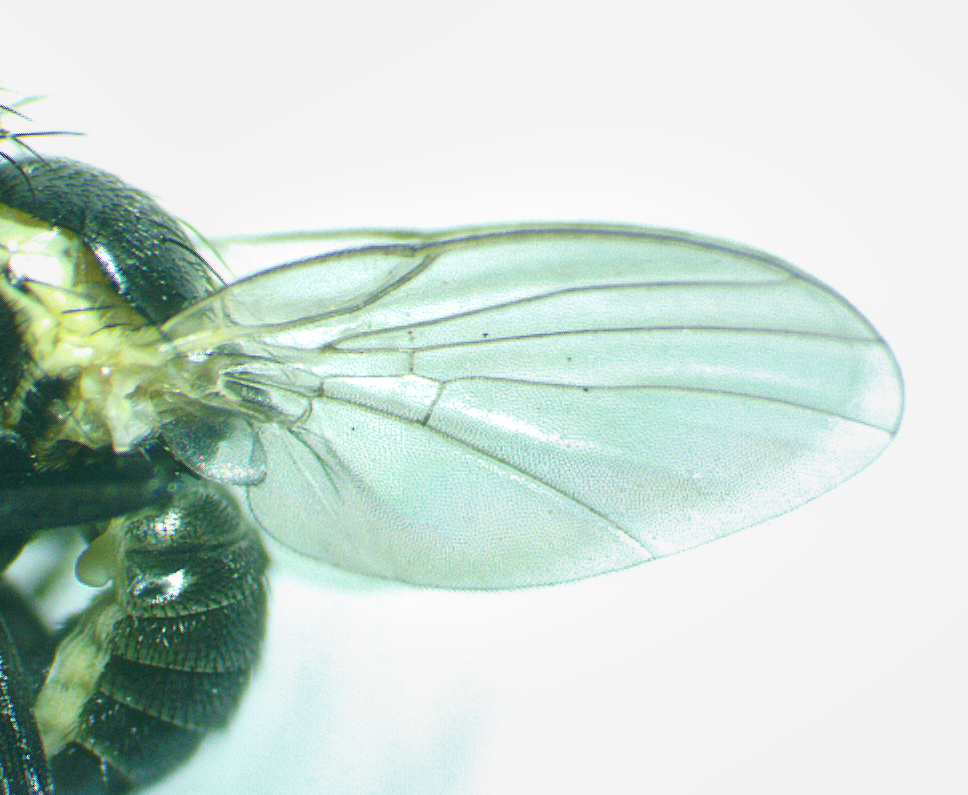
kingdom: Animalia
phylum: Arthropoda
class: Insecta
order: Diptera
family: Agromyzidae
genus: Calycomyza
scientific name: Calycomyza flavinotum
